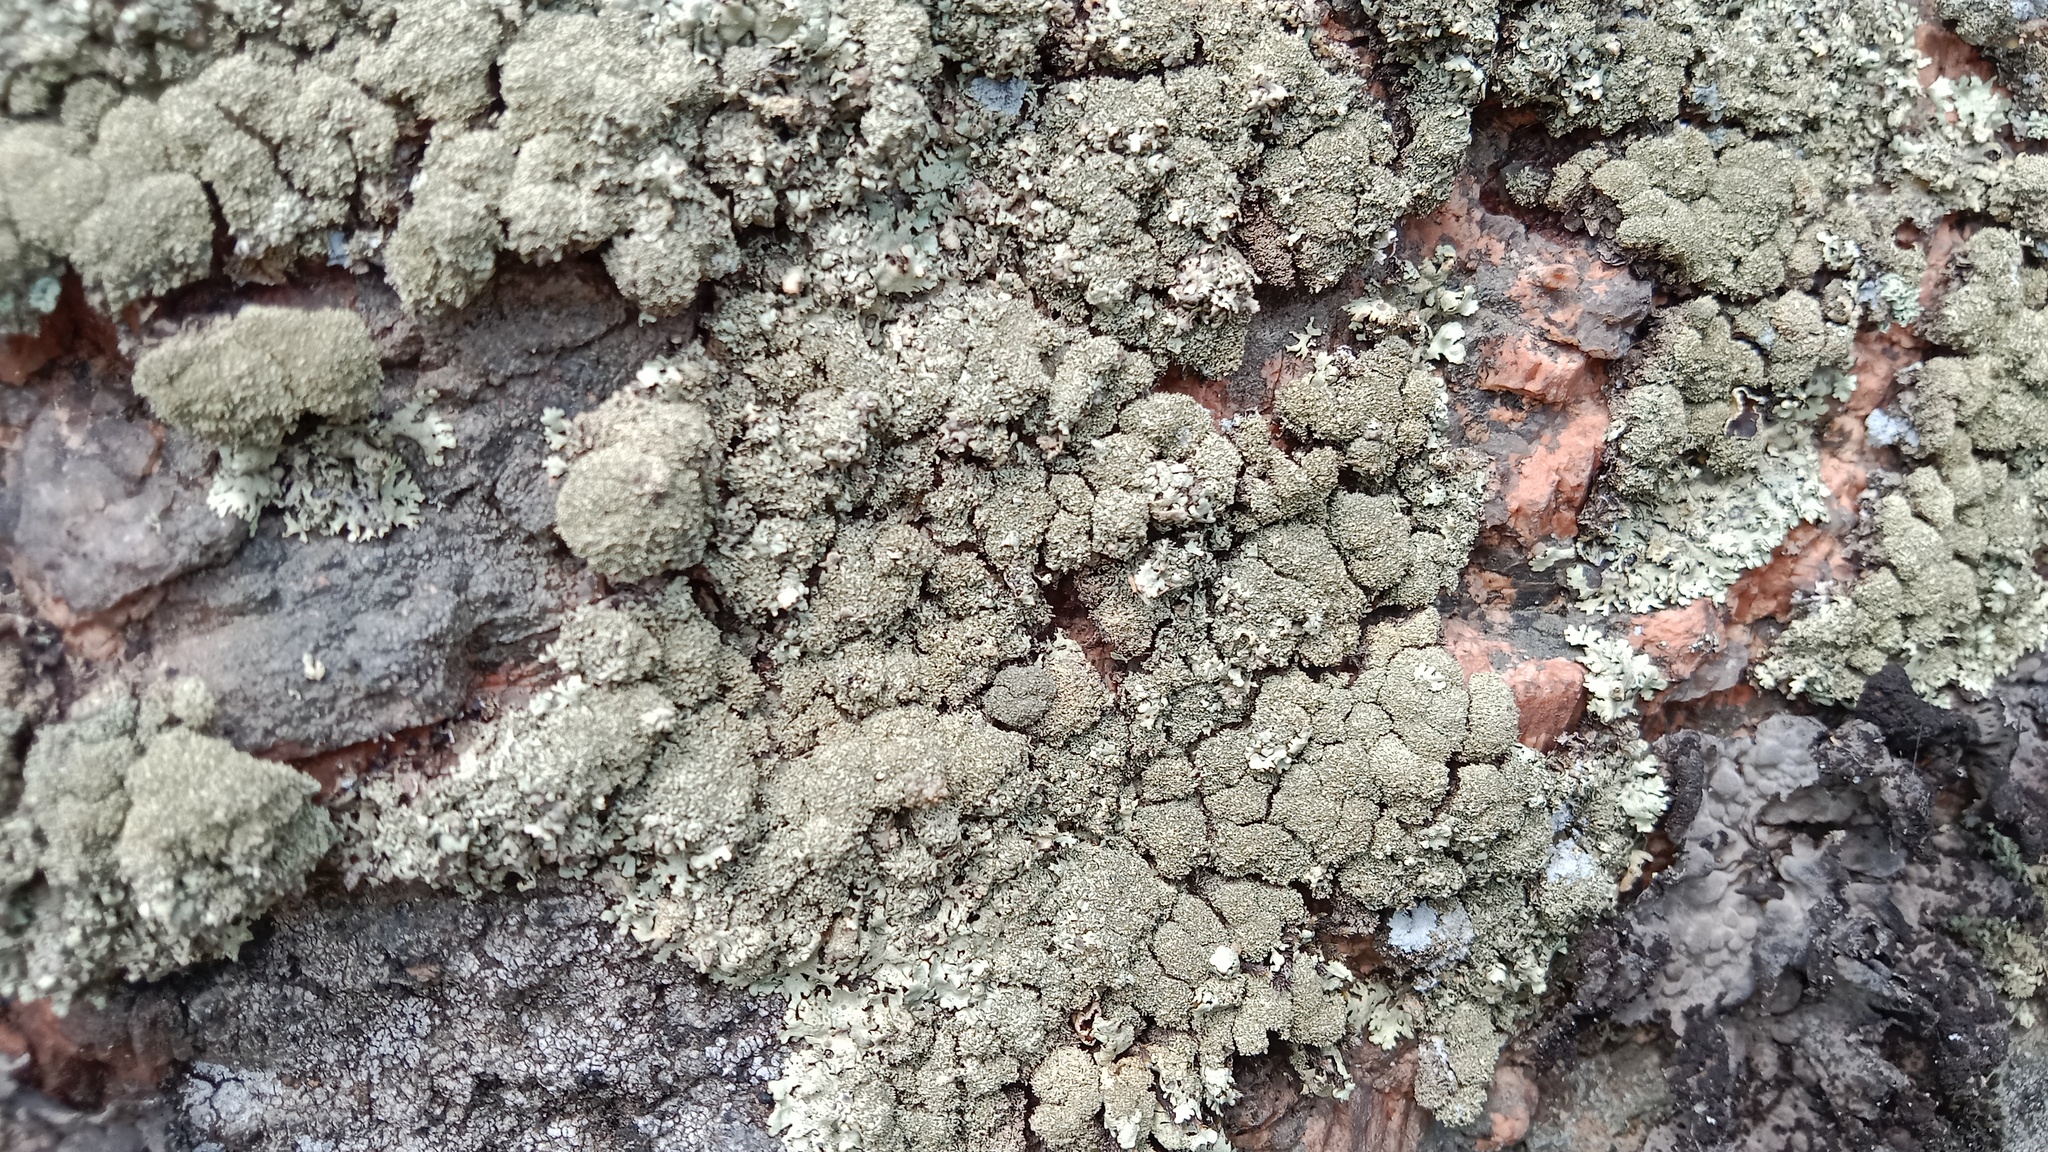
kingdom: Fungi
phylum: Ascomycota
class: Lecanoromycetes
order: Lecanorales
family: Parmeliaceae
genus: Xanthoparmelia
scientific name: Xanthoparmelia conspersa
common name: Peppered rock shield
